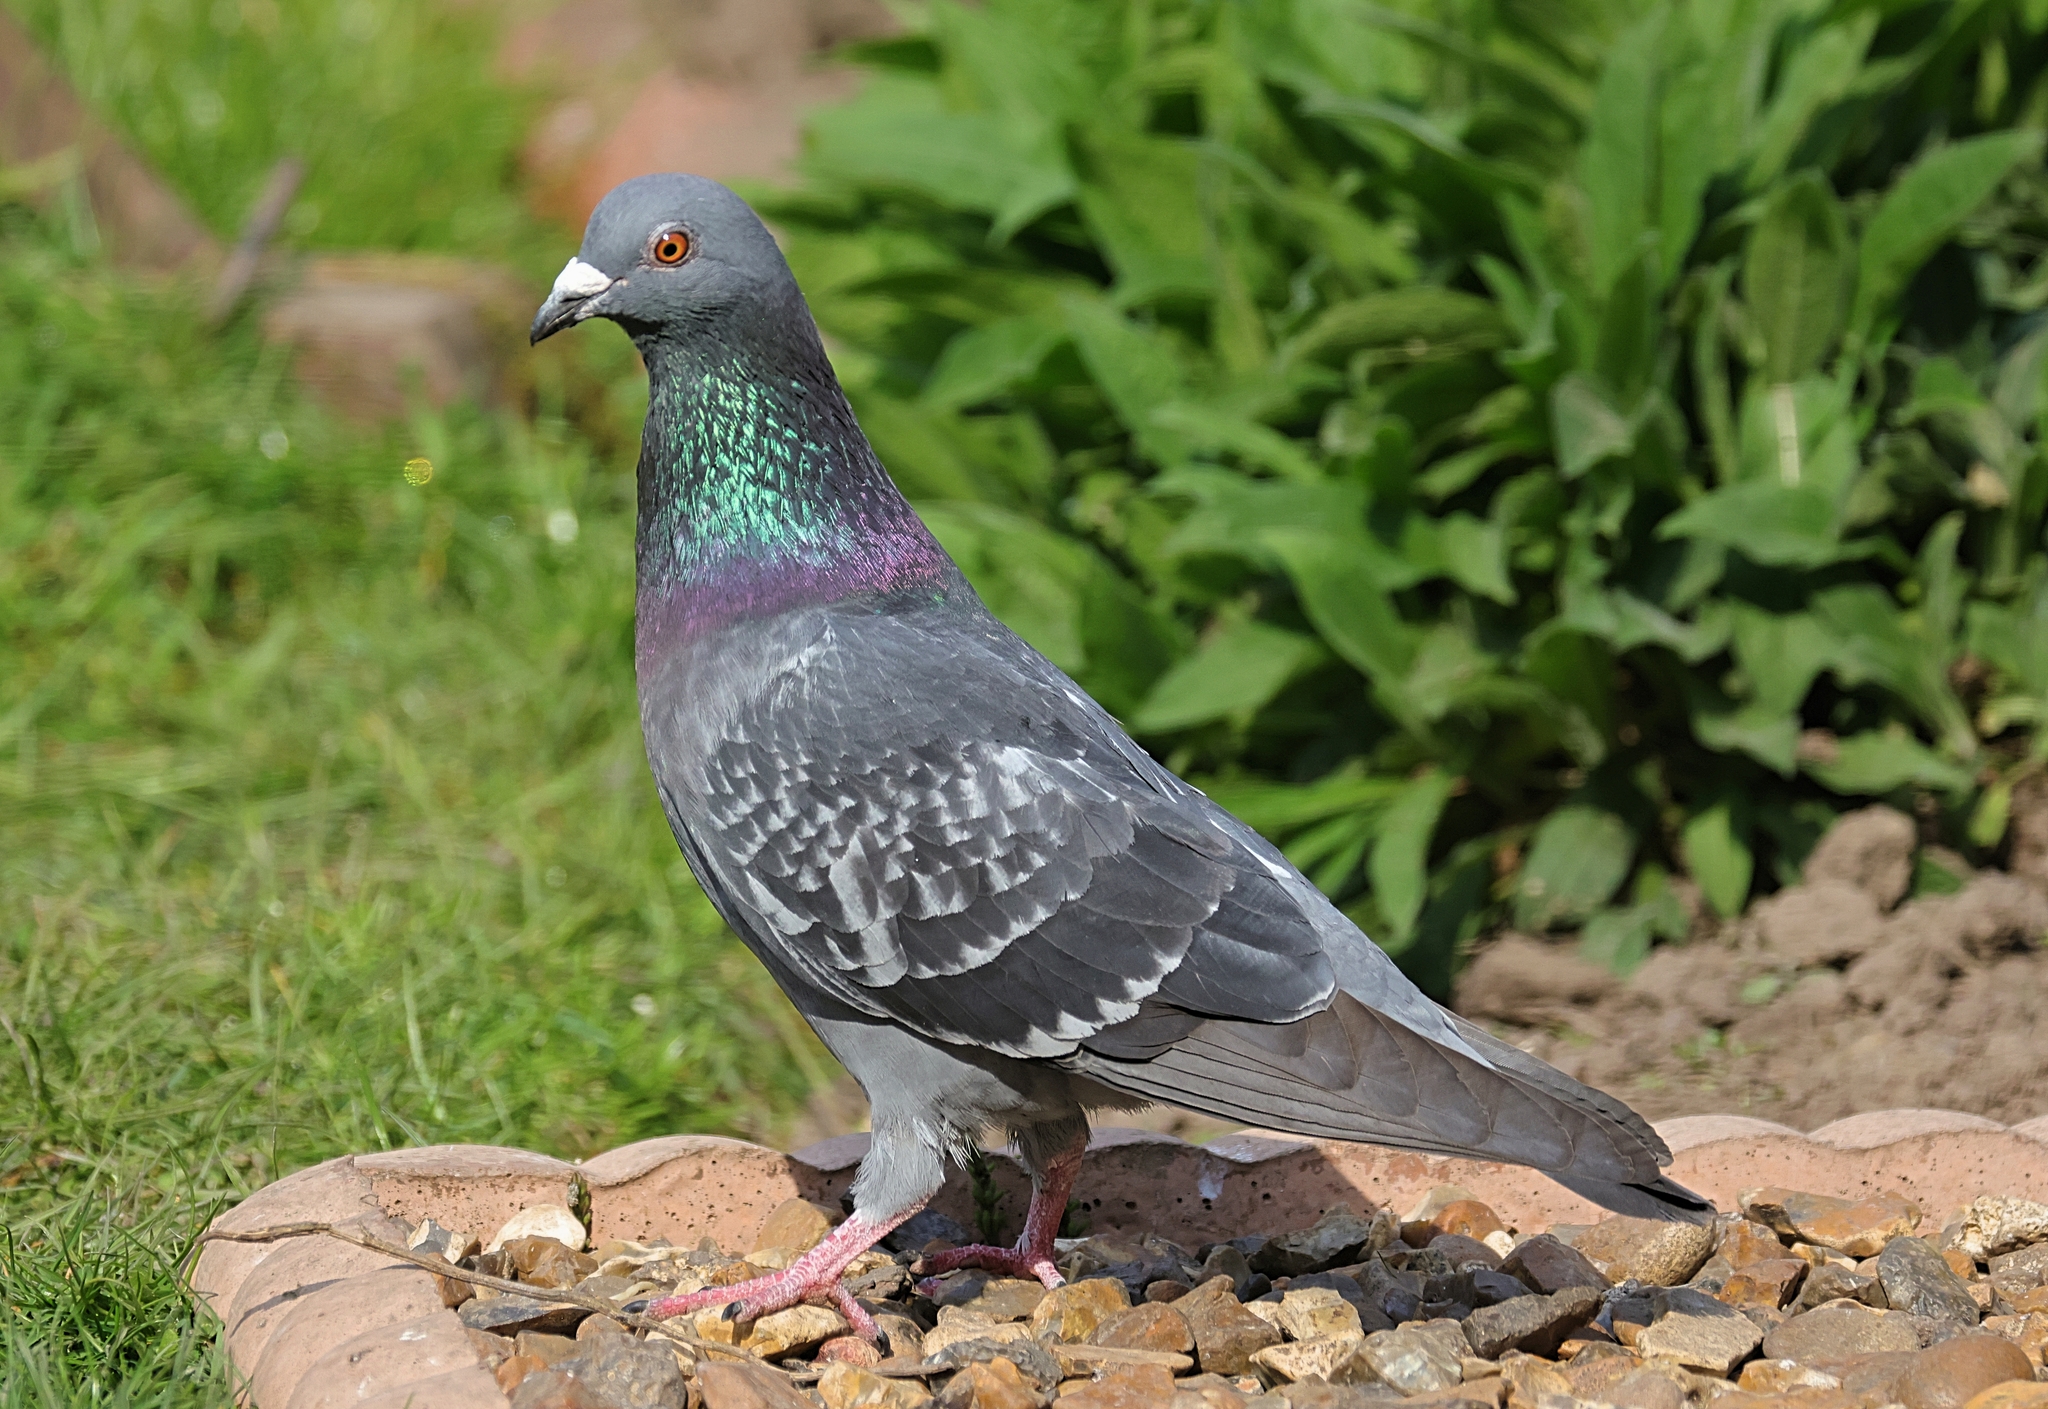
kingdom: Animalia
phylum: Chordata
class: Aves
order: Columbiformes
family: Columbidae
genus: Columba
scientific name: Columba livia
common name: Rock pigeon
